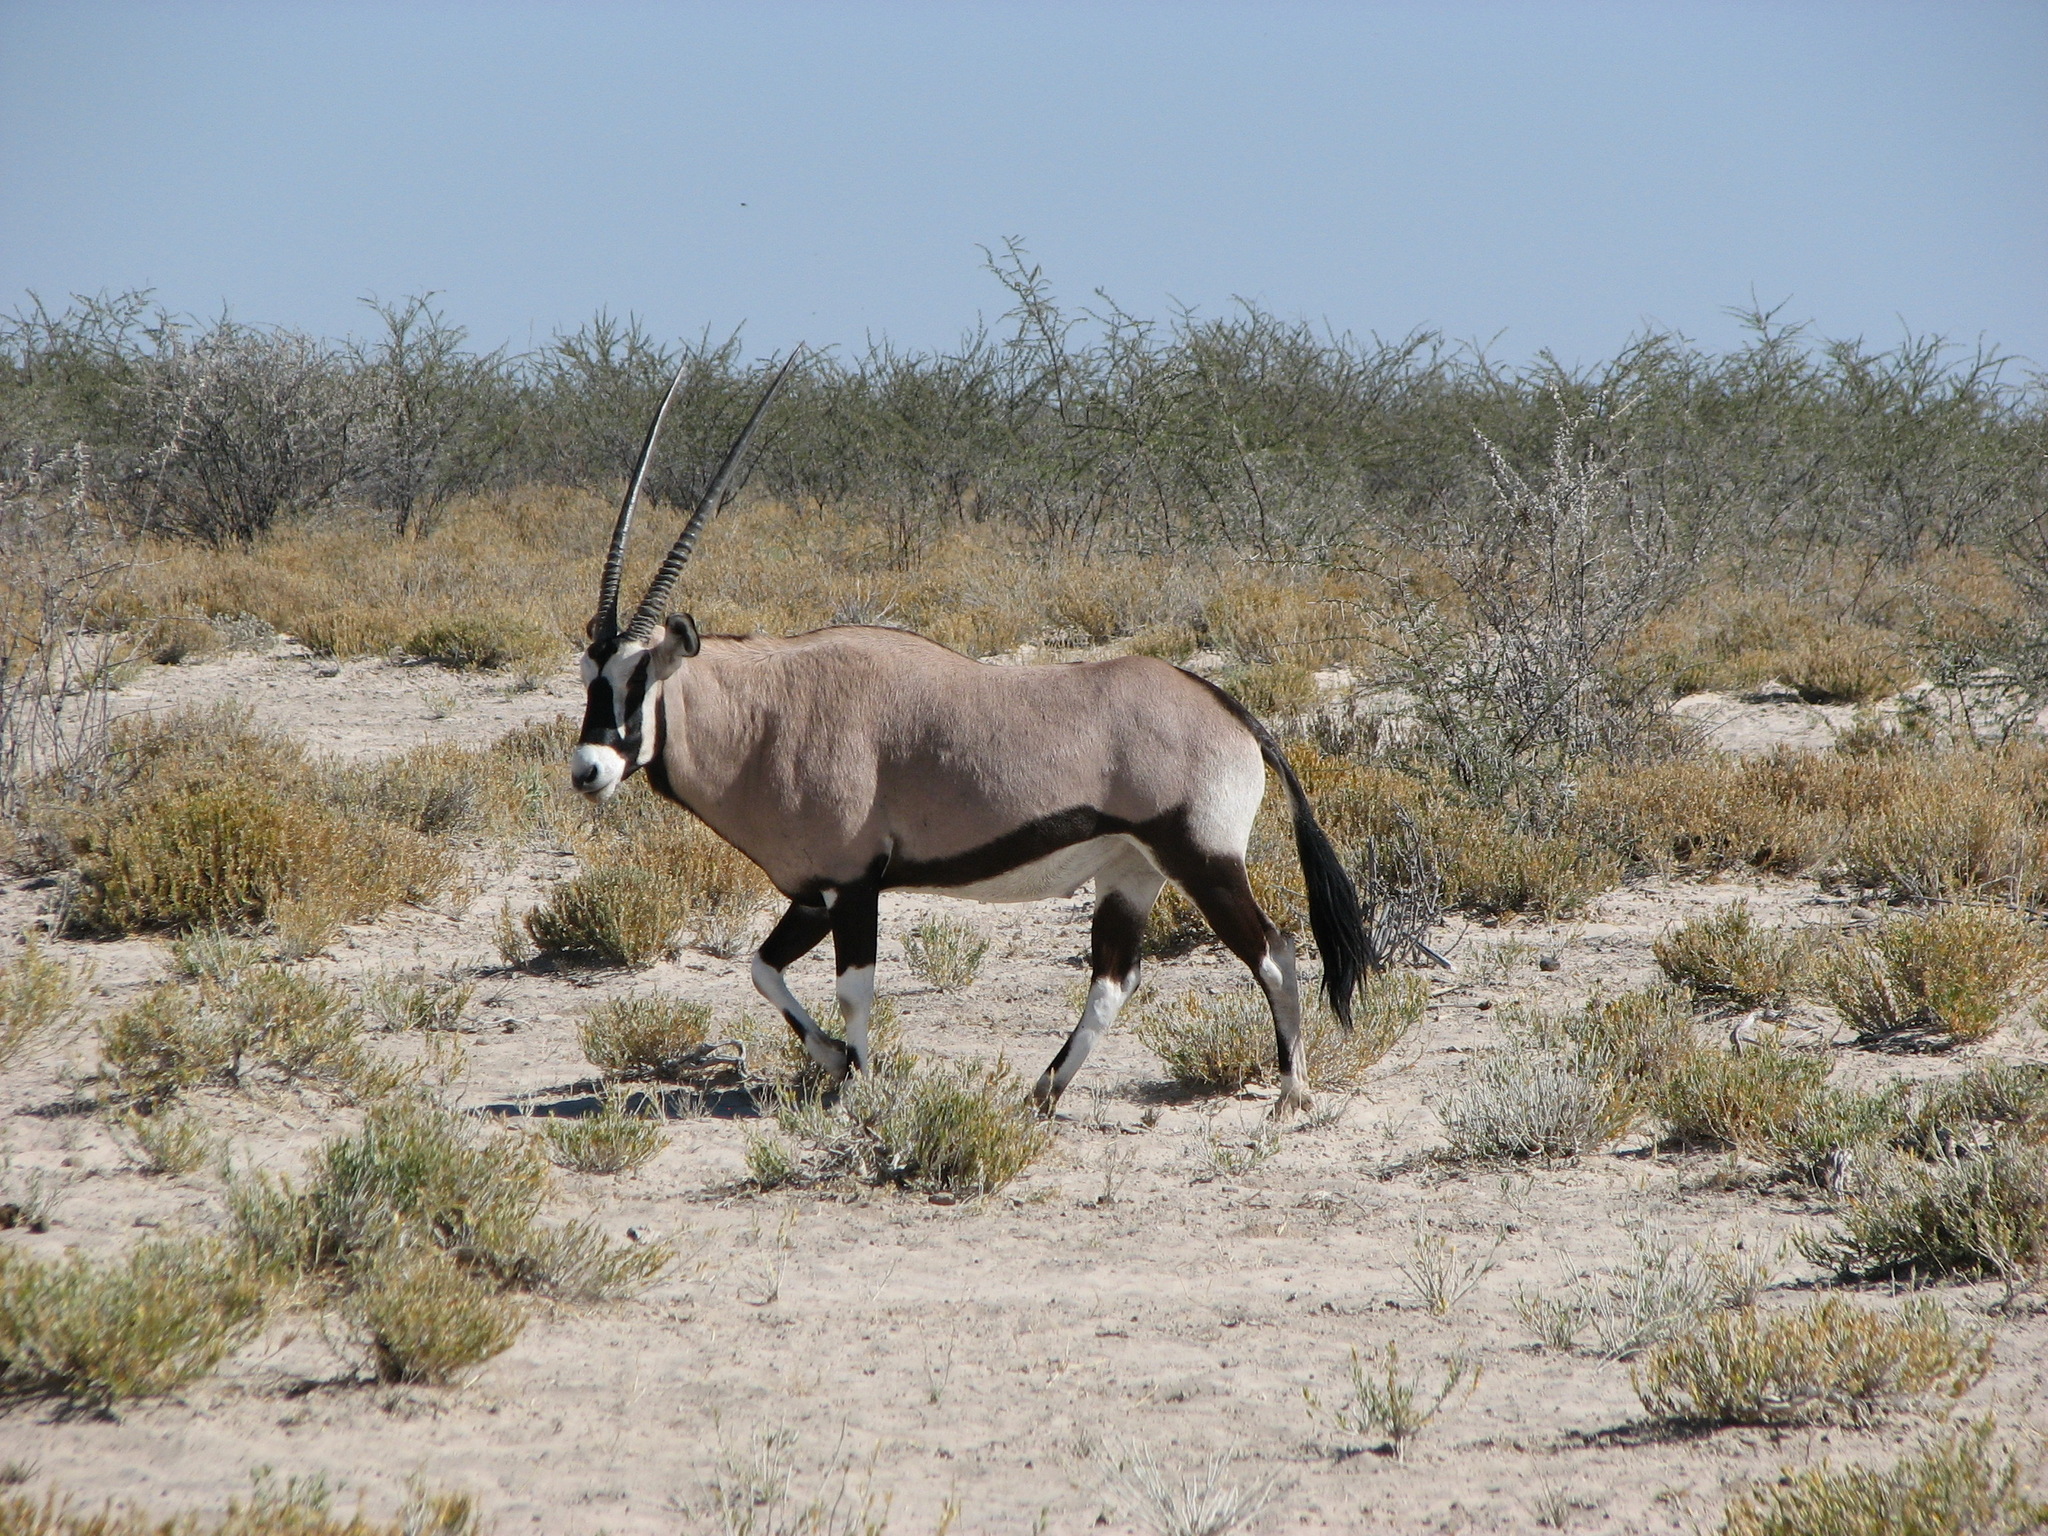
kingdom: Animalia
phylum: Chordata
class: Mammalia
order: Artiodactyla
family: Bovidae
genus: Oryx
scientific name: Oryx gazella
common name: Gemsbok
